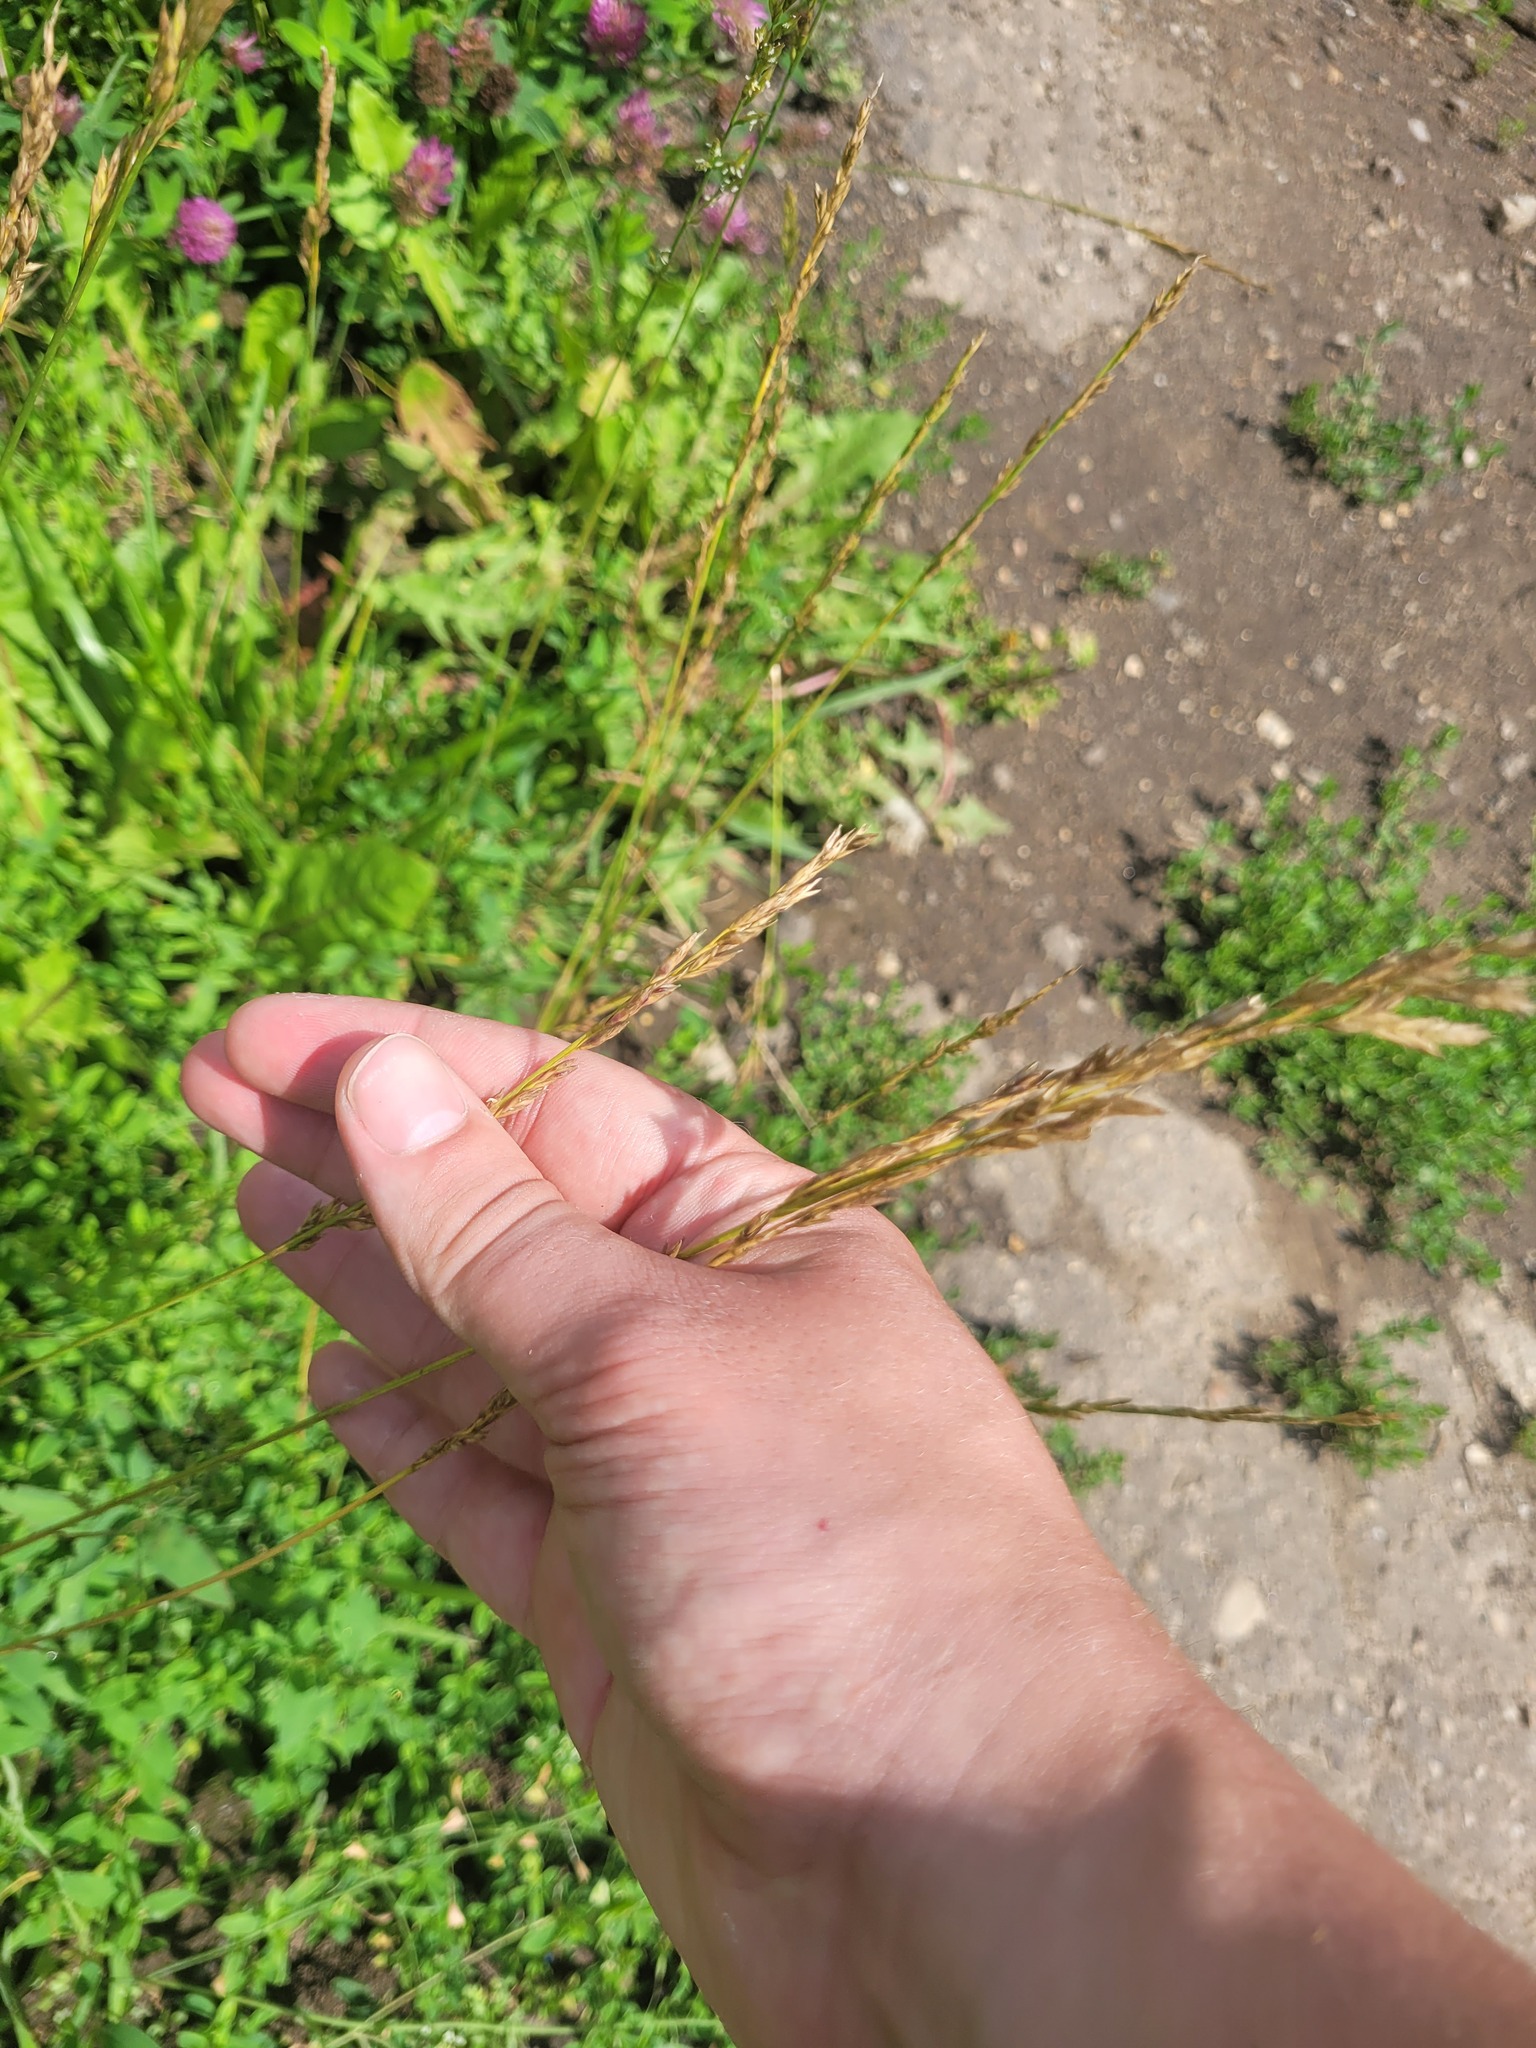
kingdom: Plantae
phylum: Tracheophyta
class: Liliopsida
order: Poales
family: Poaceae
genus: Lolium
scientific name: Lolium arundinaceum
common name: Reed fescue
